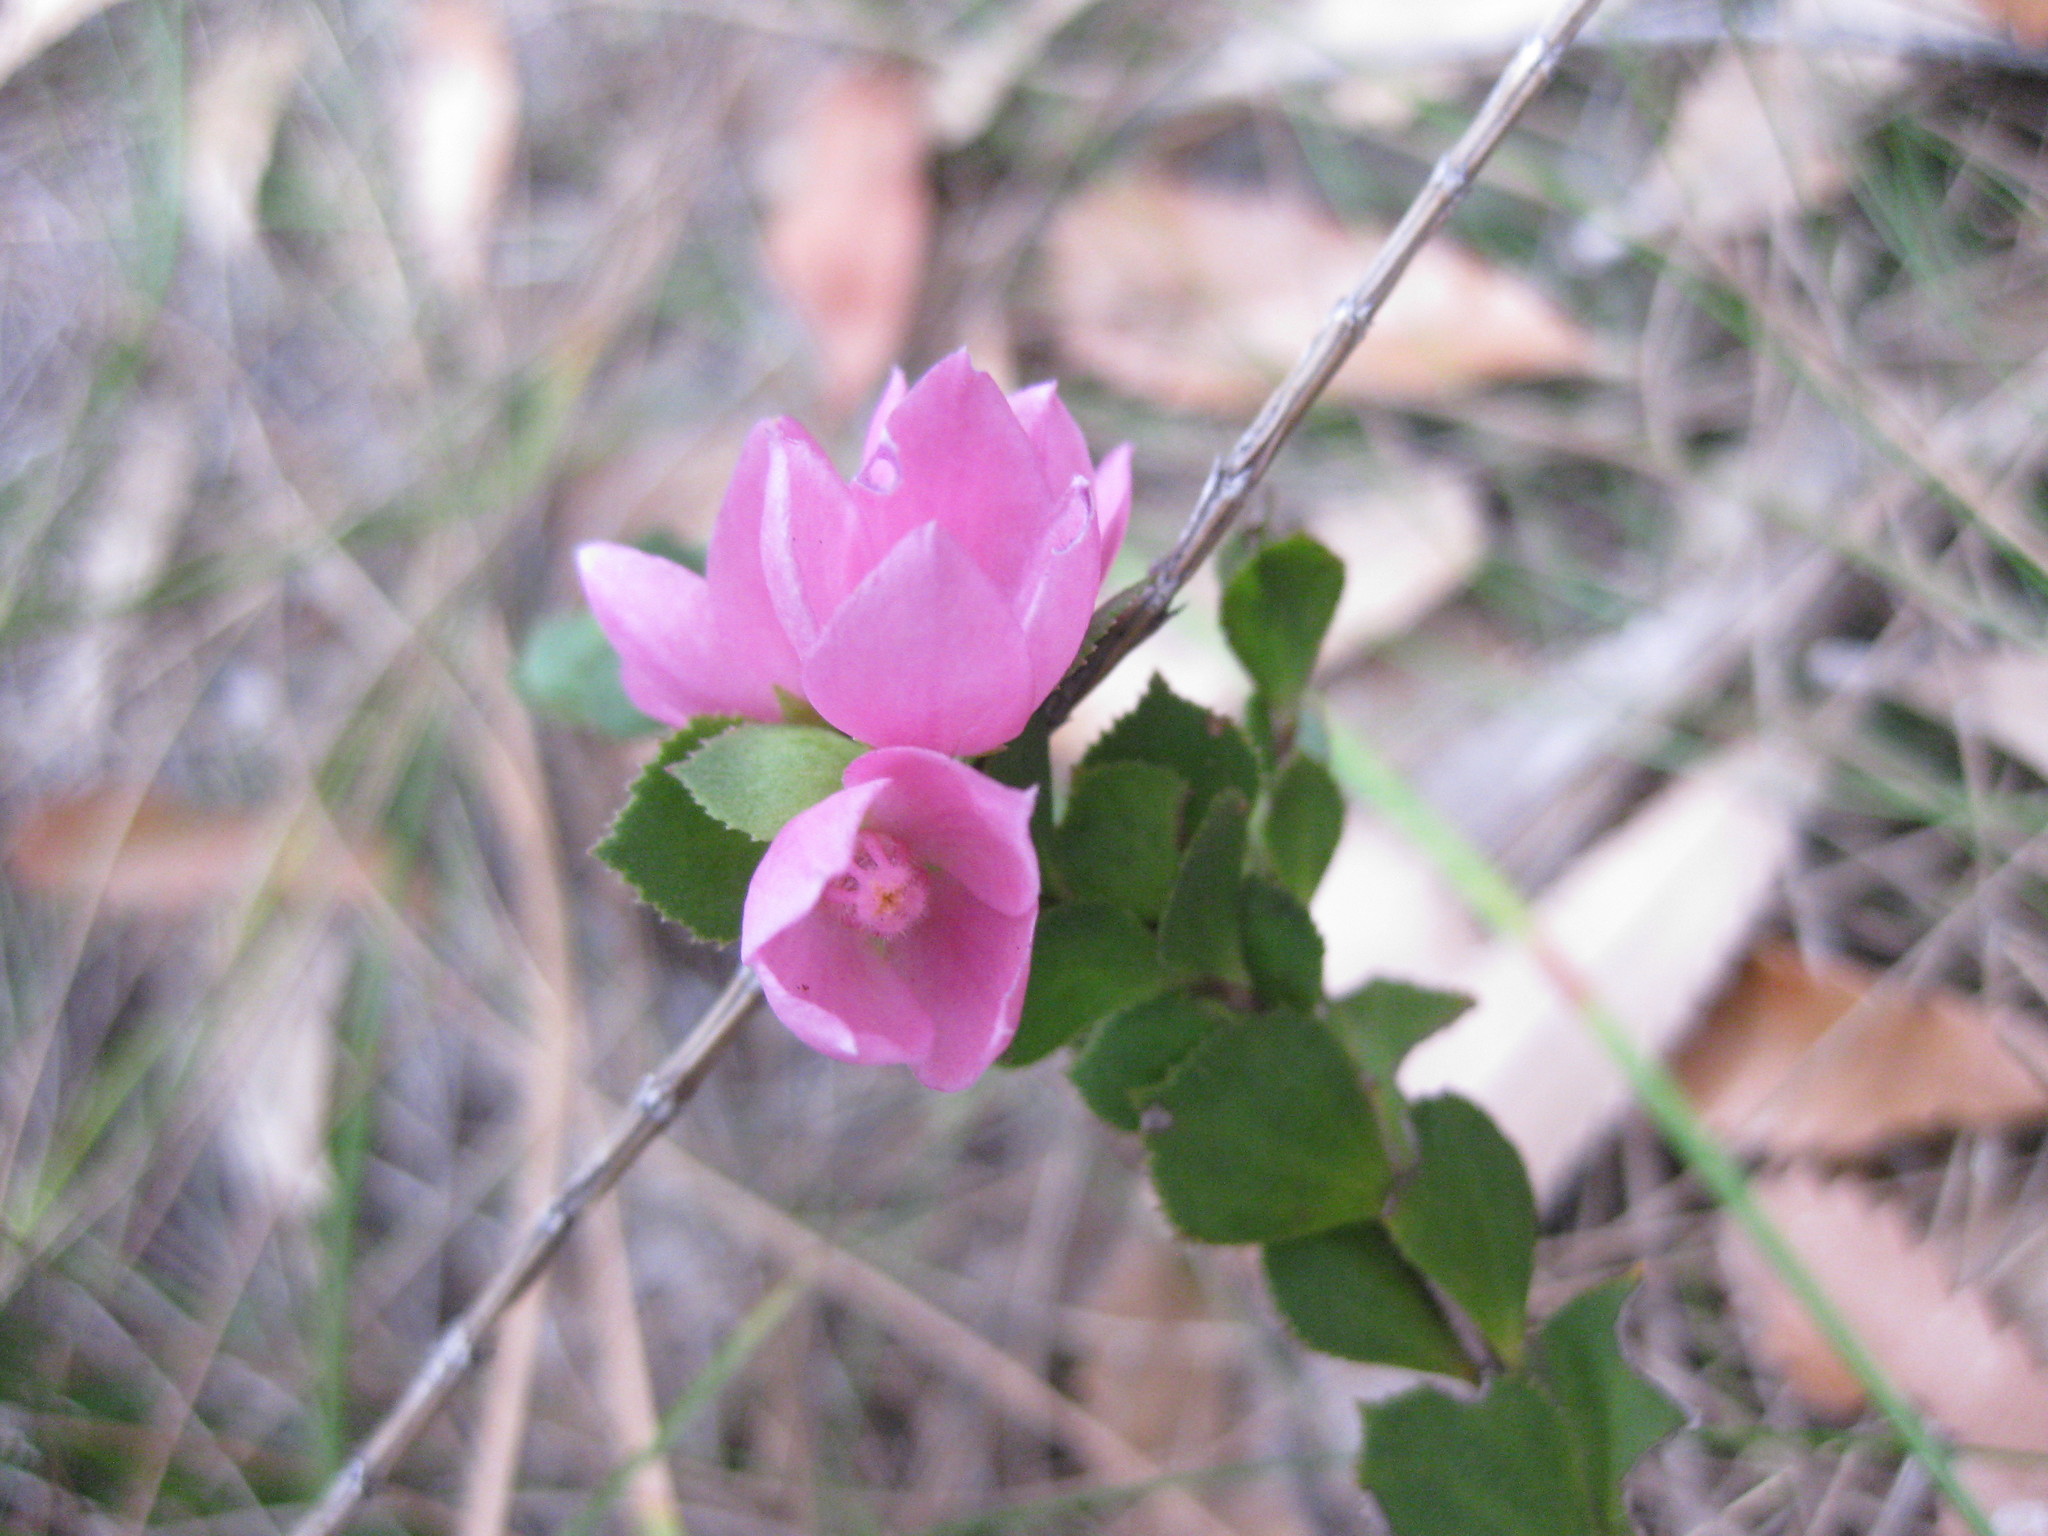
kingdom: Plantae
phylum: Tracheophyta
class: Magnoliopsida
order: Sapindales
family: Rutaceae
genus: Boronia
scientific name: Boronia serrulata
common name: Rose boronia
